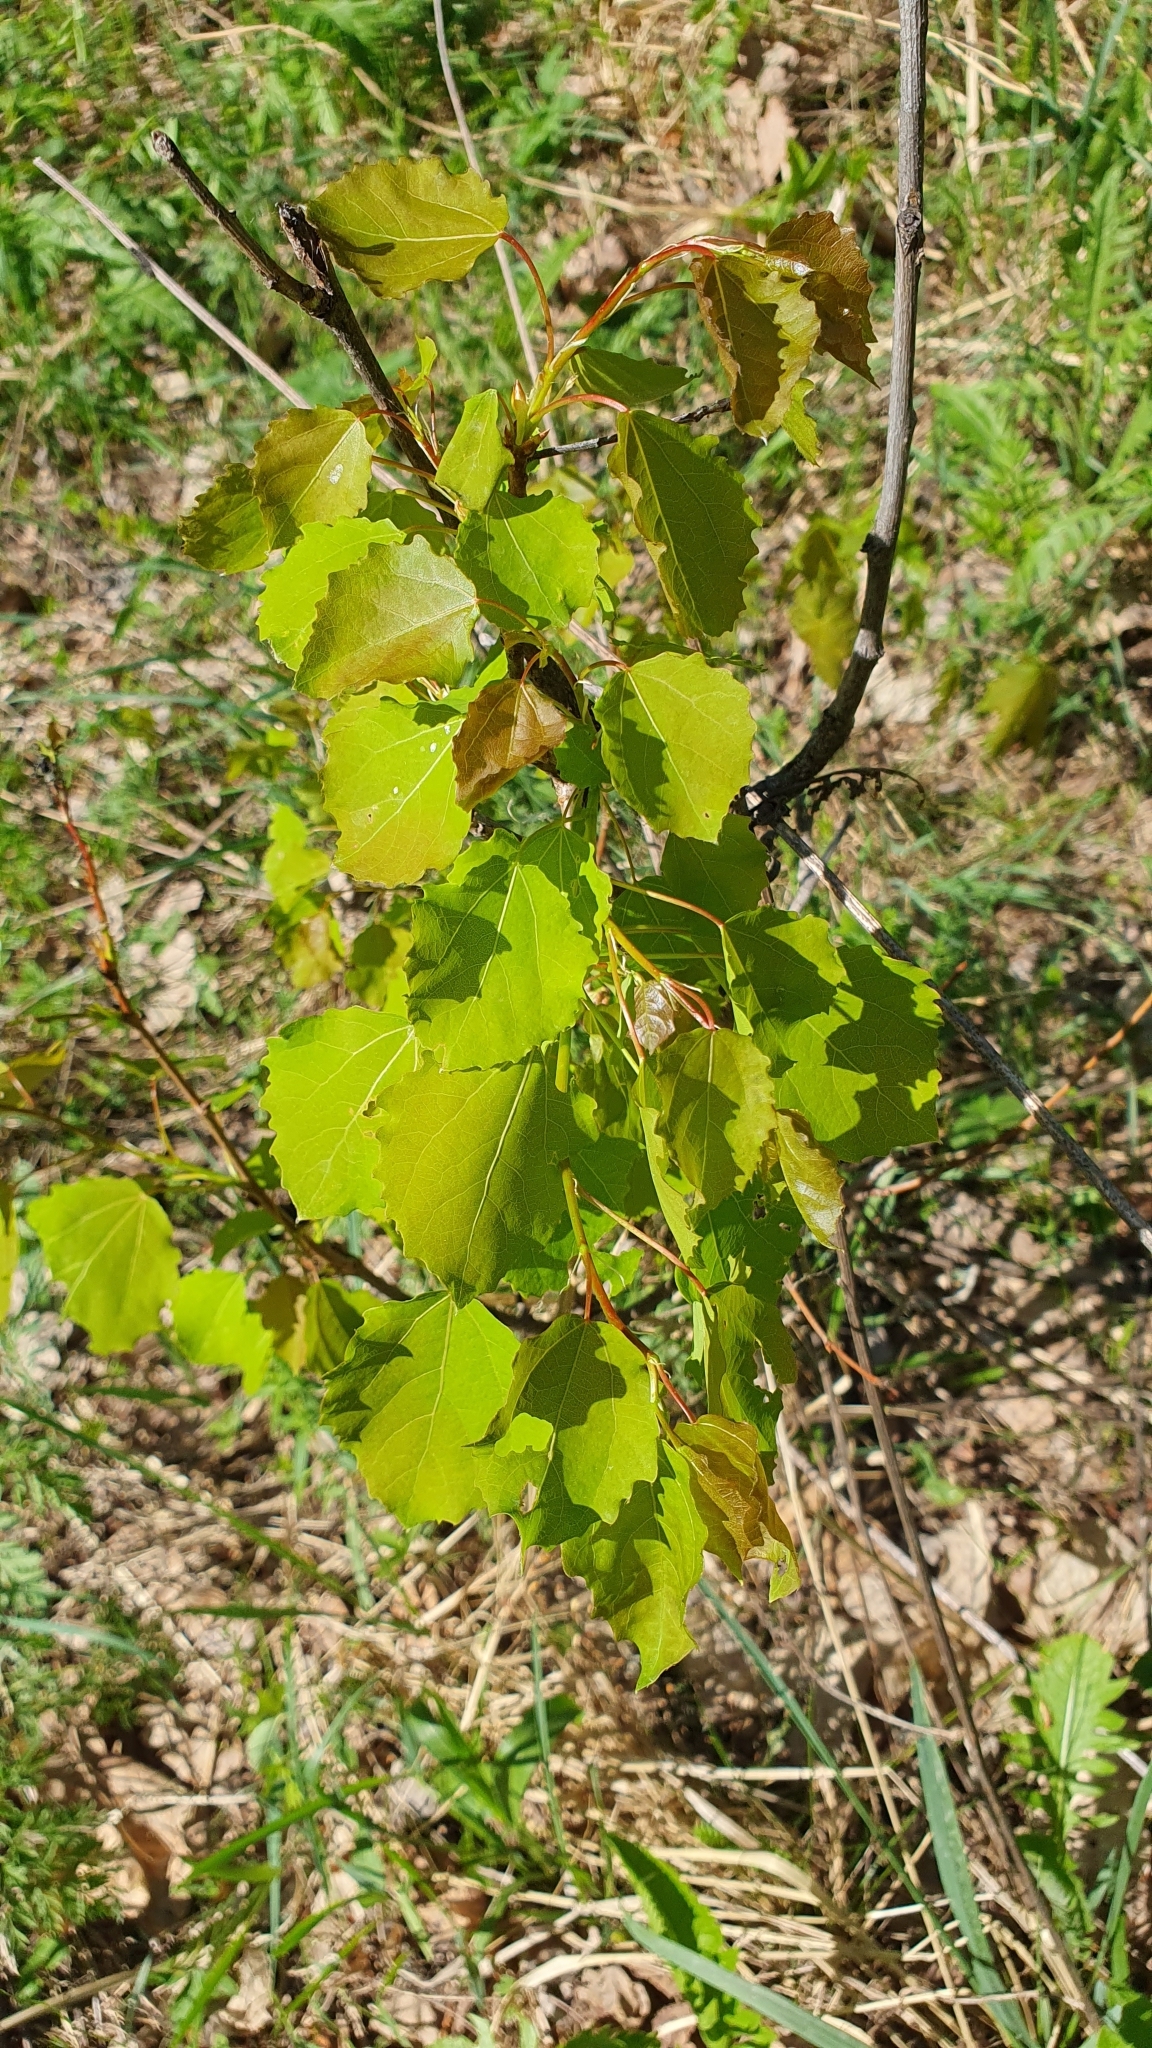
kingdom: Plantae
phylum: Tracheophyta
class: Magnoliopsida
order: Malpighiales
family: Salicaceae
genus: Populus
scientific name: Populus tremula
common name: European aspen
